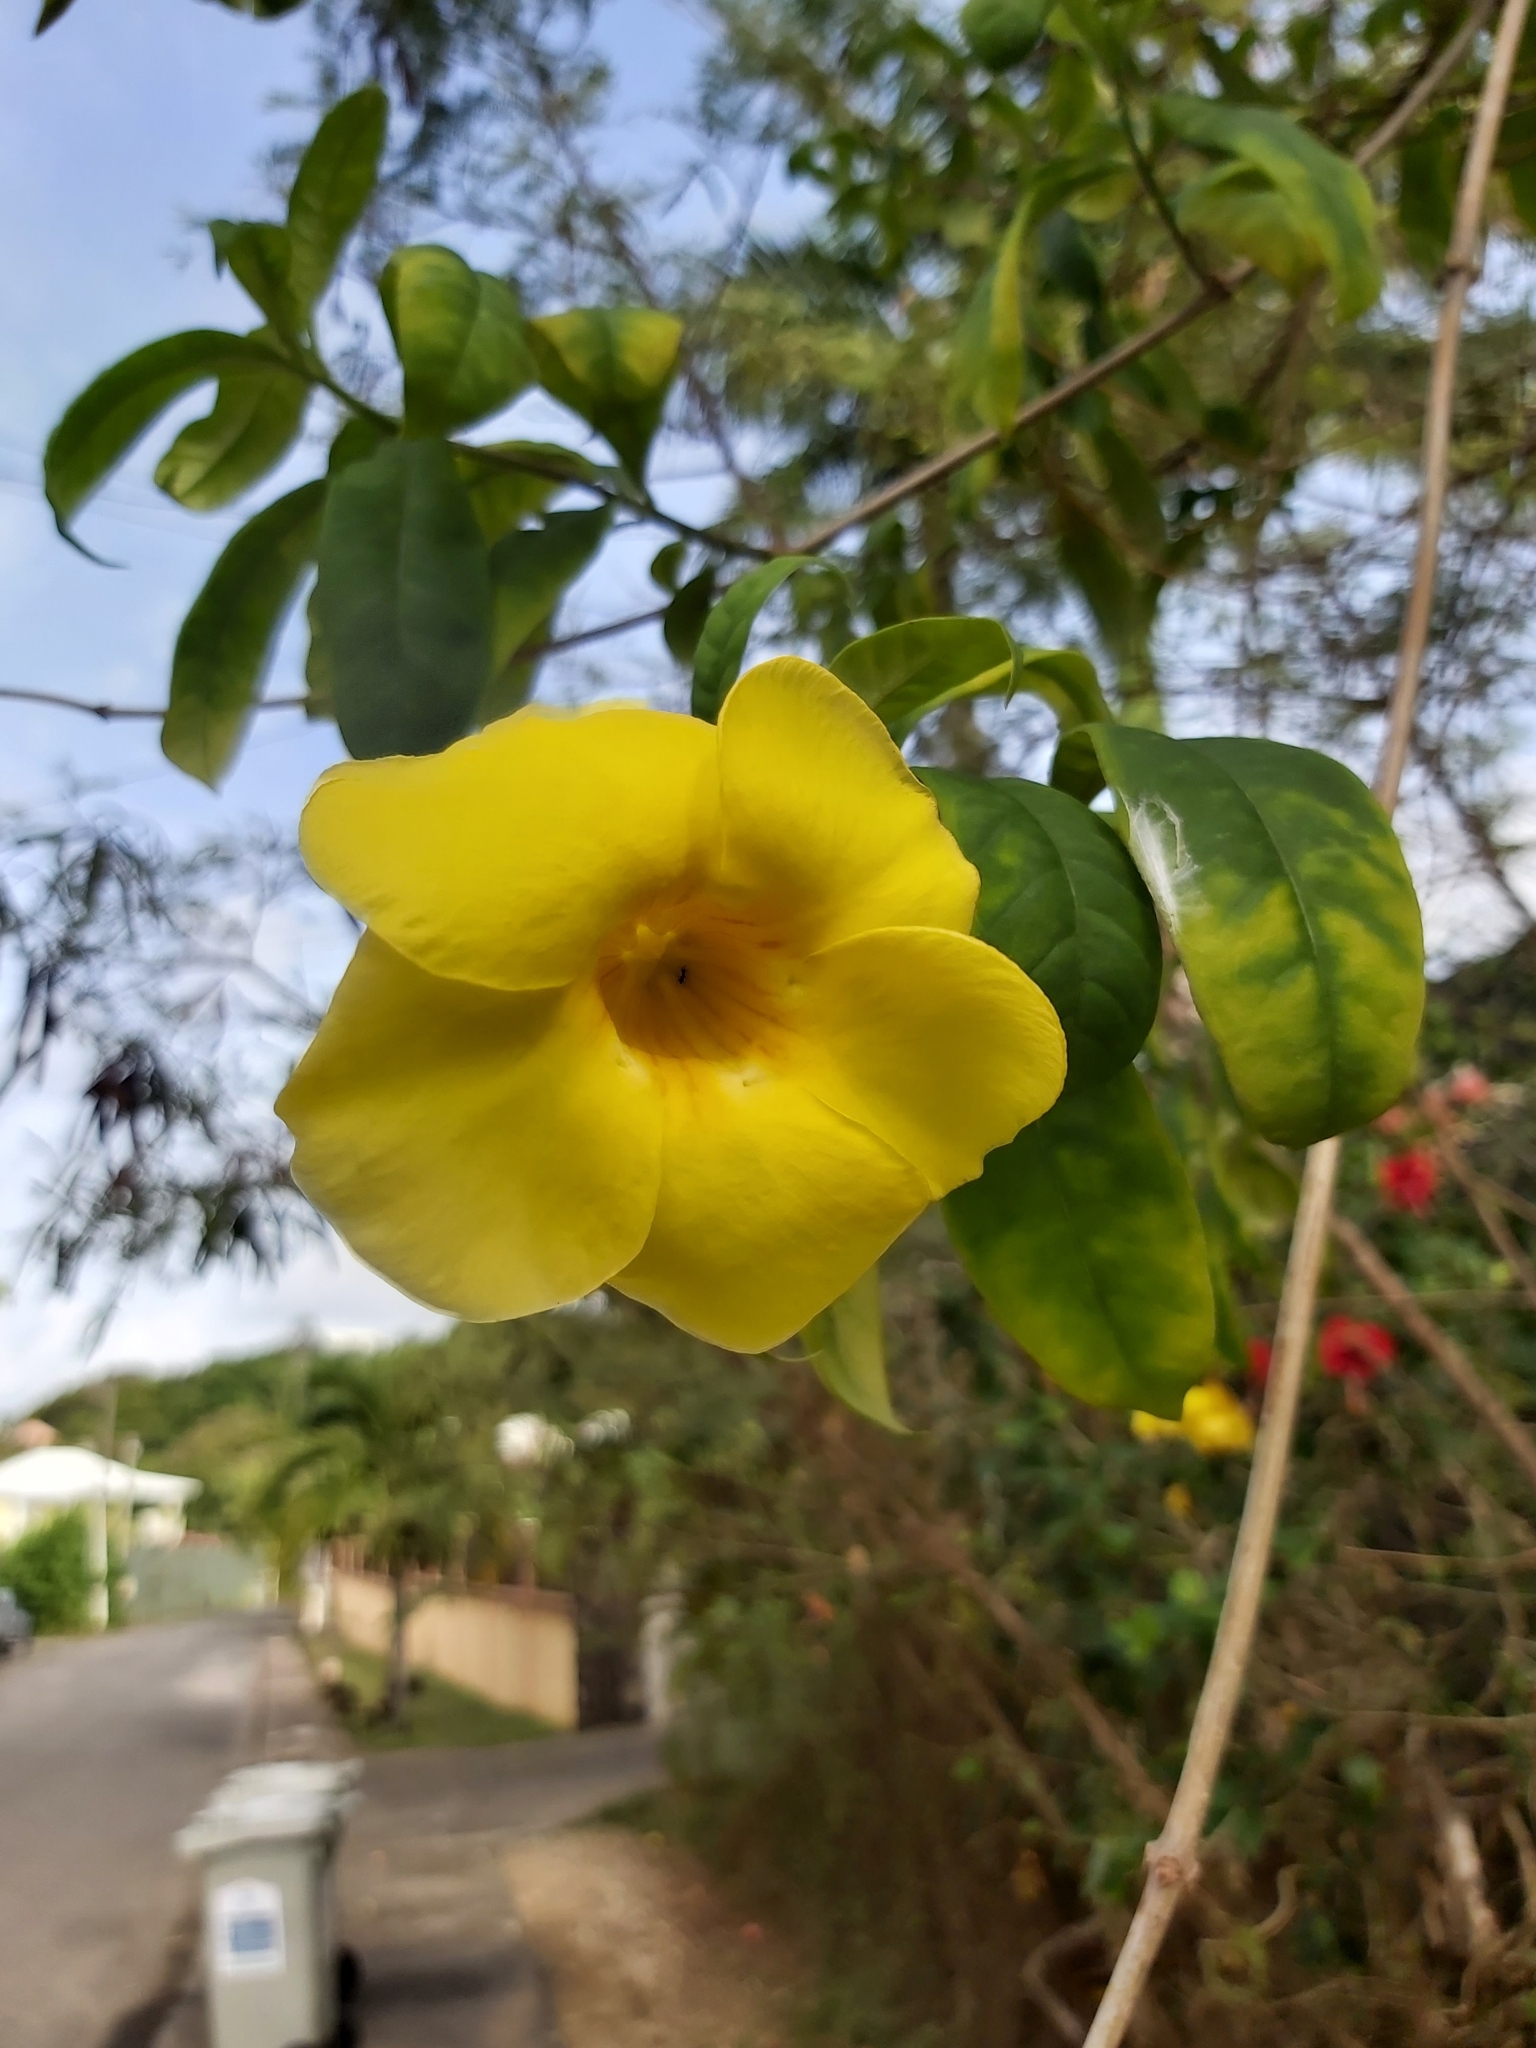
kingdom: Plantae
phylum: Tracheophyta
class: Magnoliopsida
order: Gentianales
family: Apocynaceae
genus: Allamanda
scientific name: Allamanda cathartica
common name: Golden trumpet
